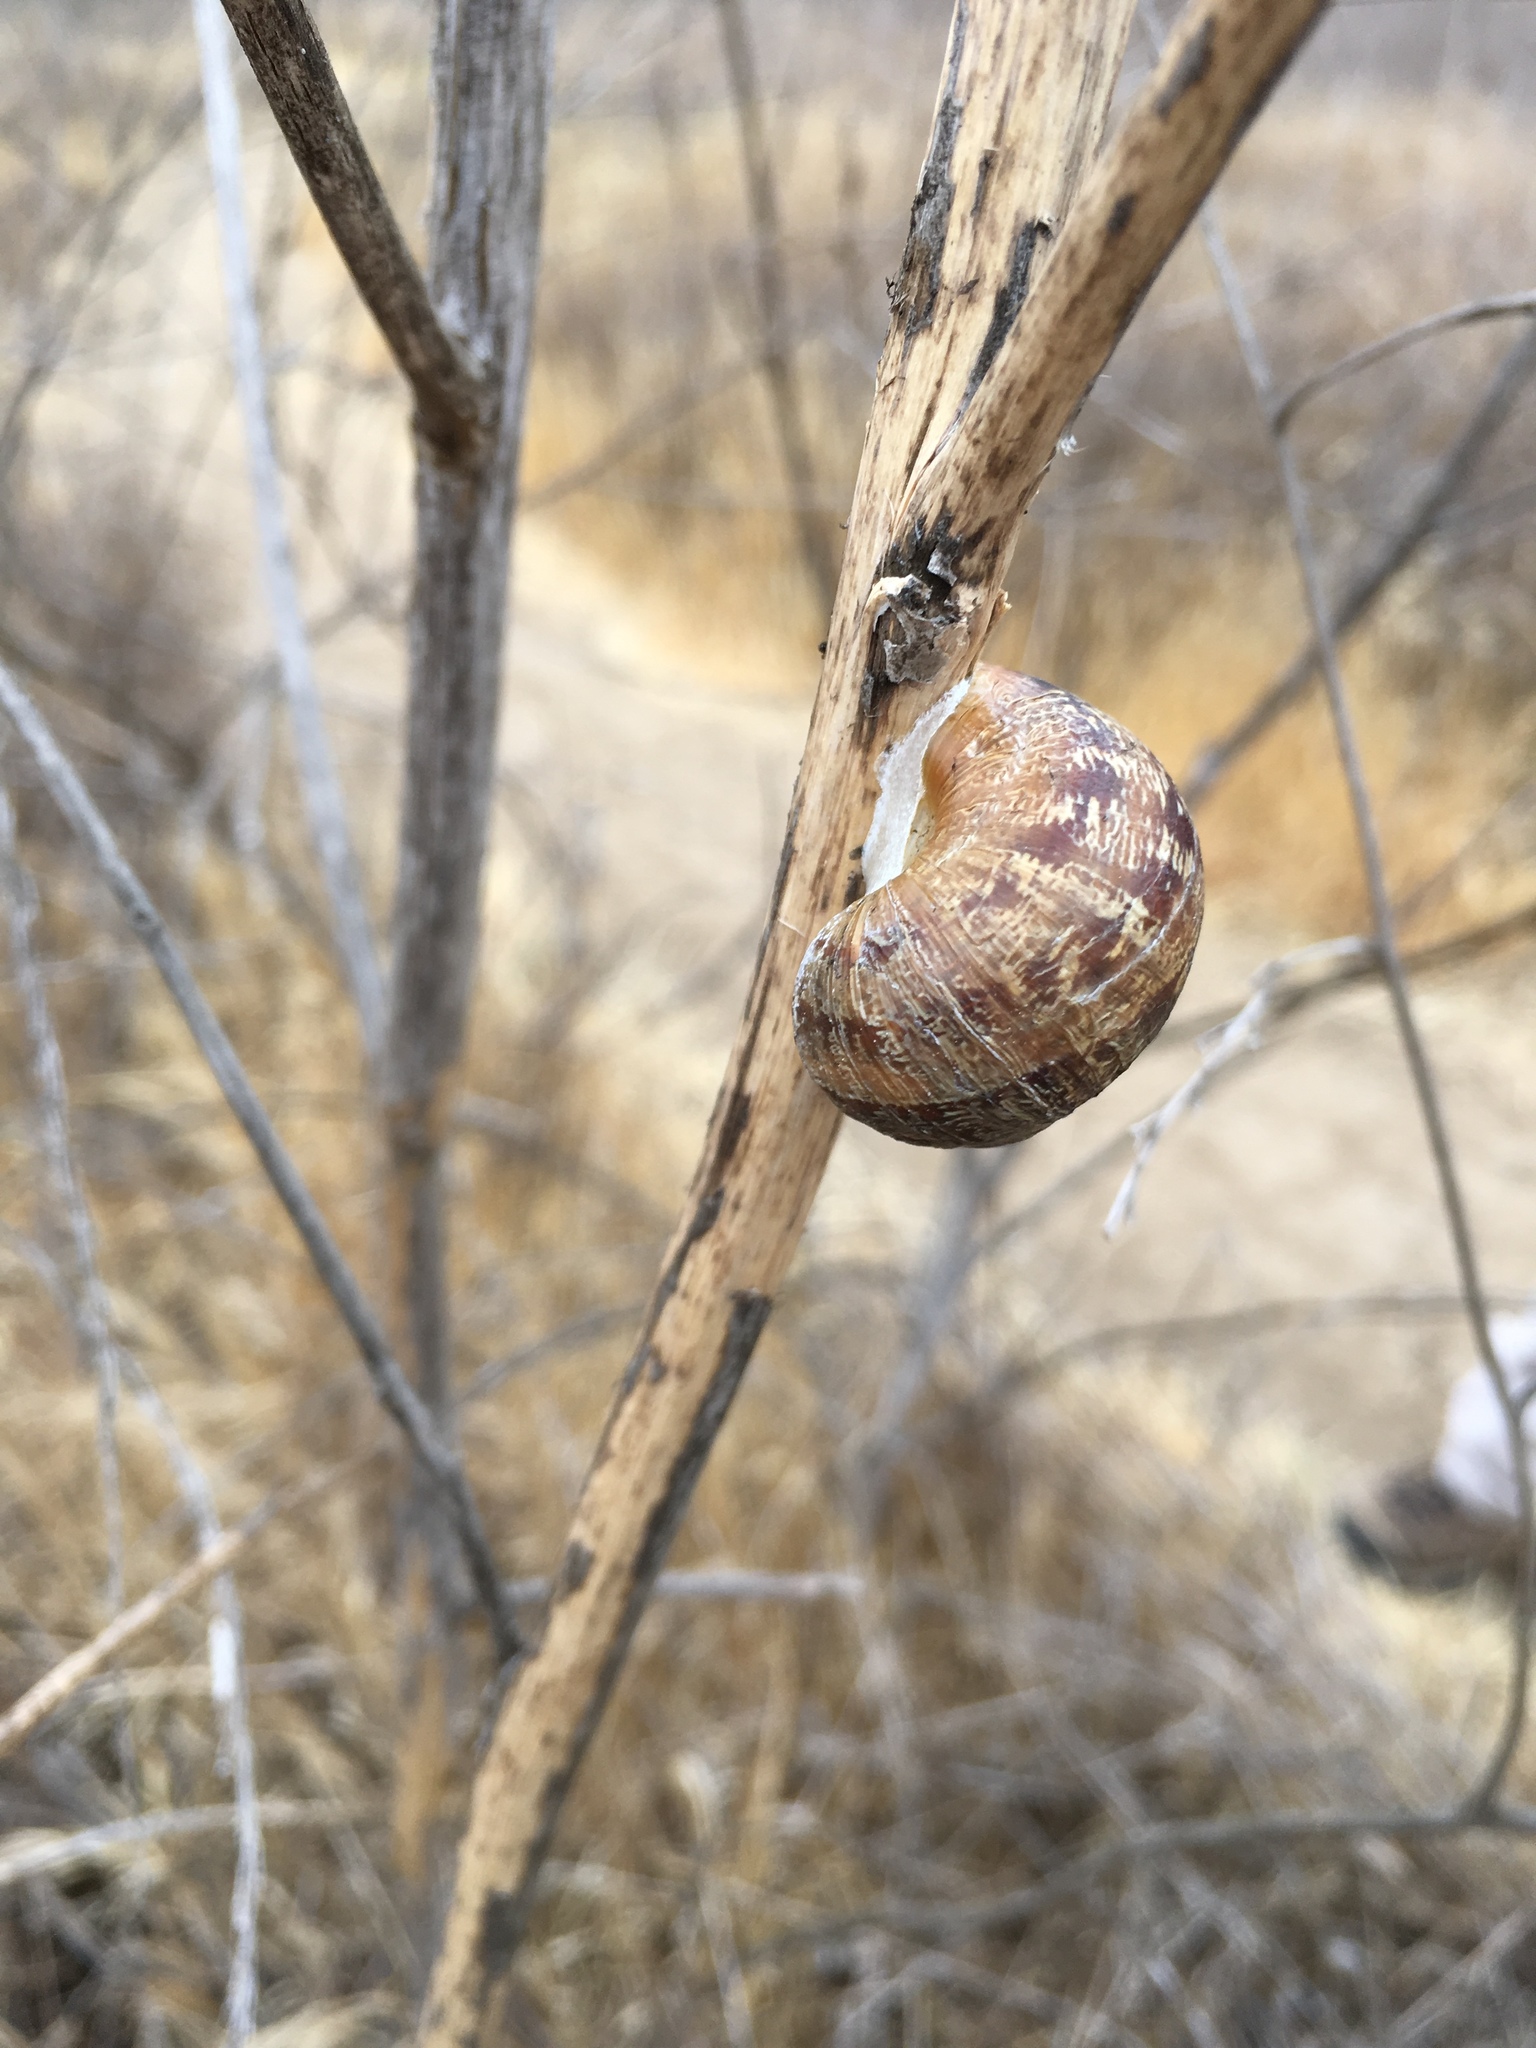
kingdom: Animalia
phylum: Mollusca
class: Gastropoda
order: Stylommatophora
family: Helicidae
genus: Cornu
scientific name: Cornu aspersum
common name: Brown garden snail
